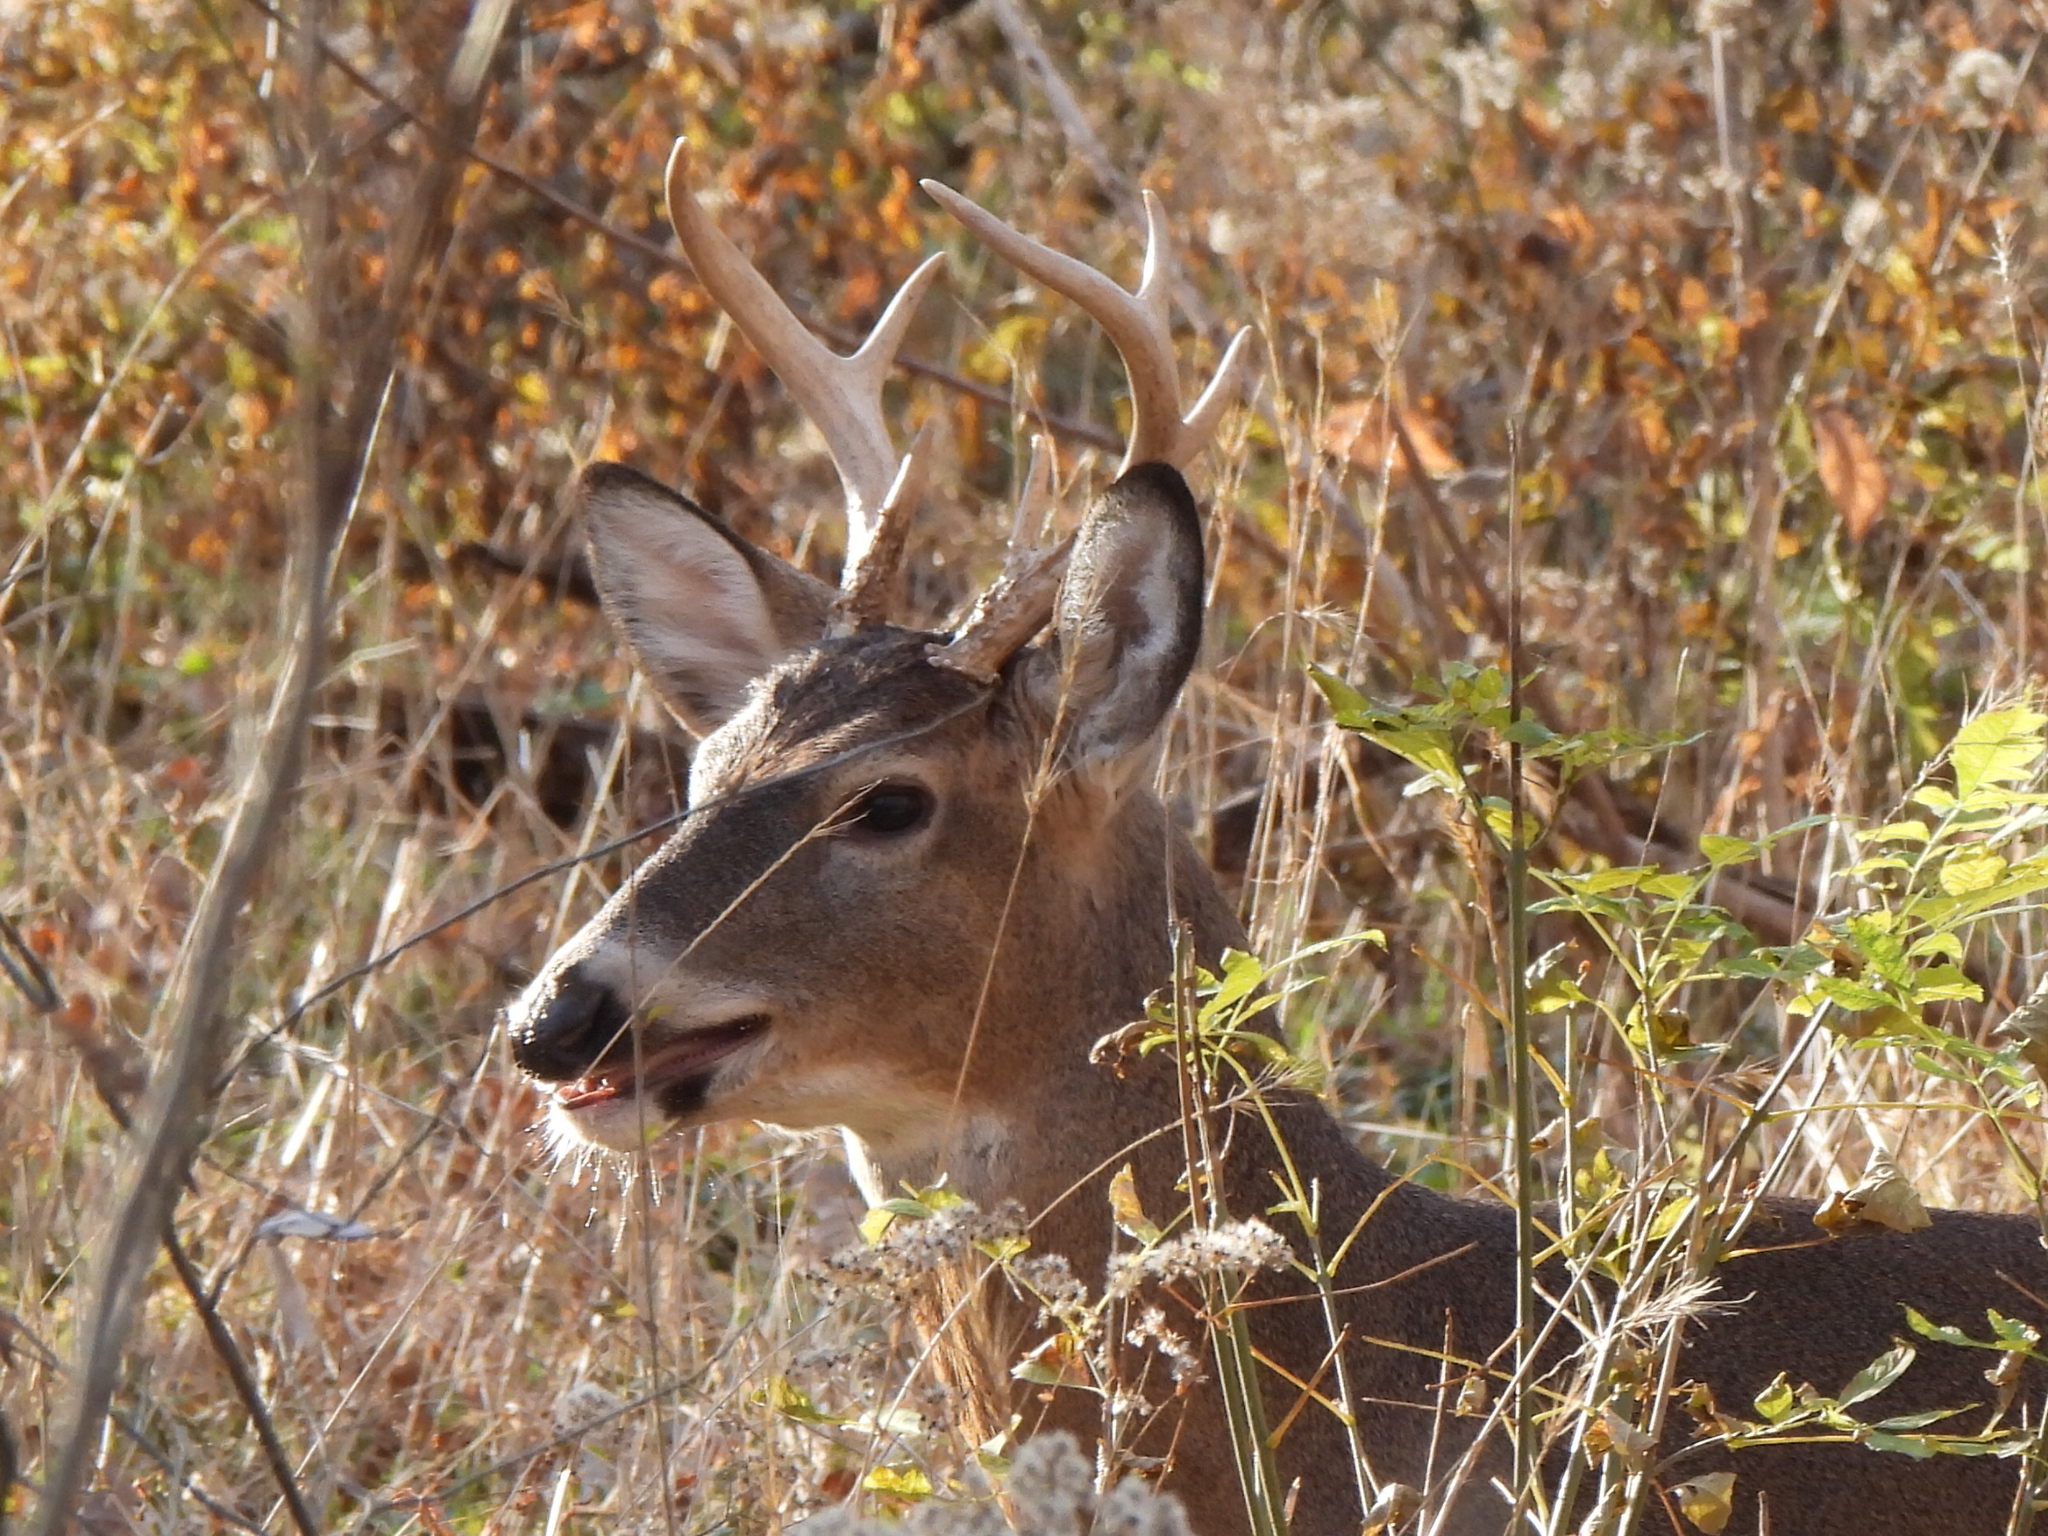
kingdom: Animalia
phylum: Chordata
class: Mammalia
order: Artiodactyla
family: Cervidae
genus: Odocoileus
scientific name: Odocoileus virginianus
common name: White-tailed deer
